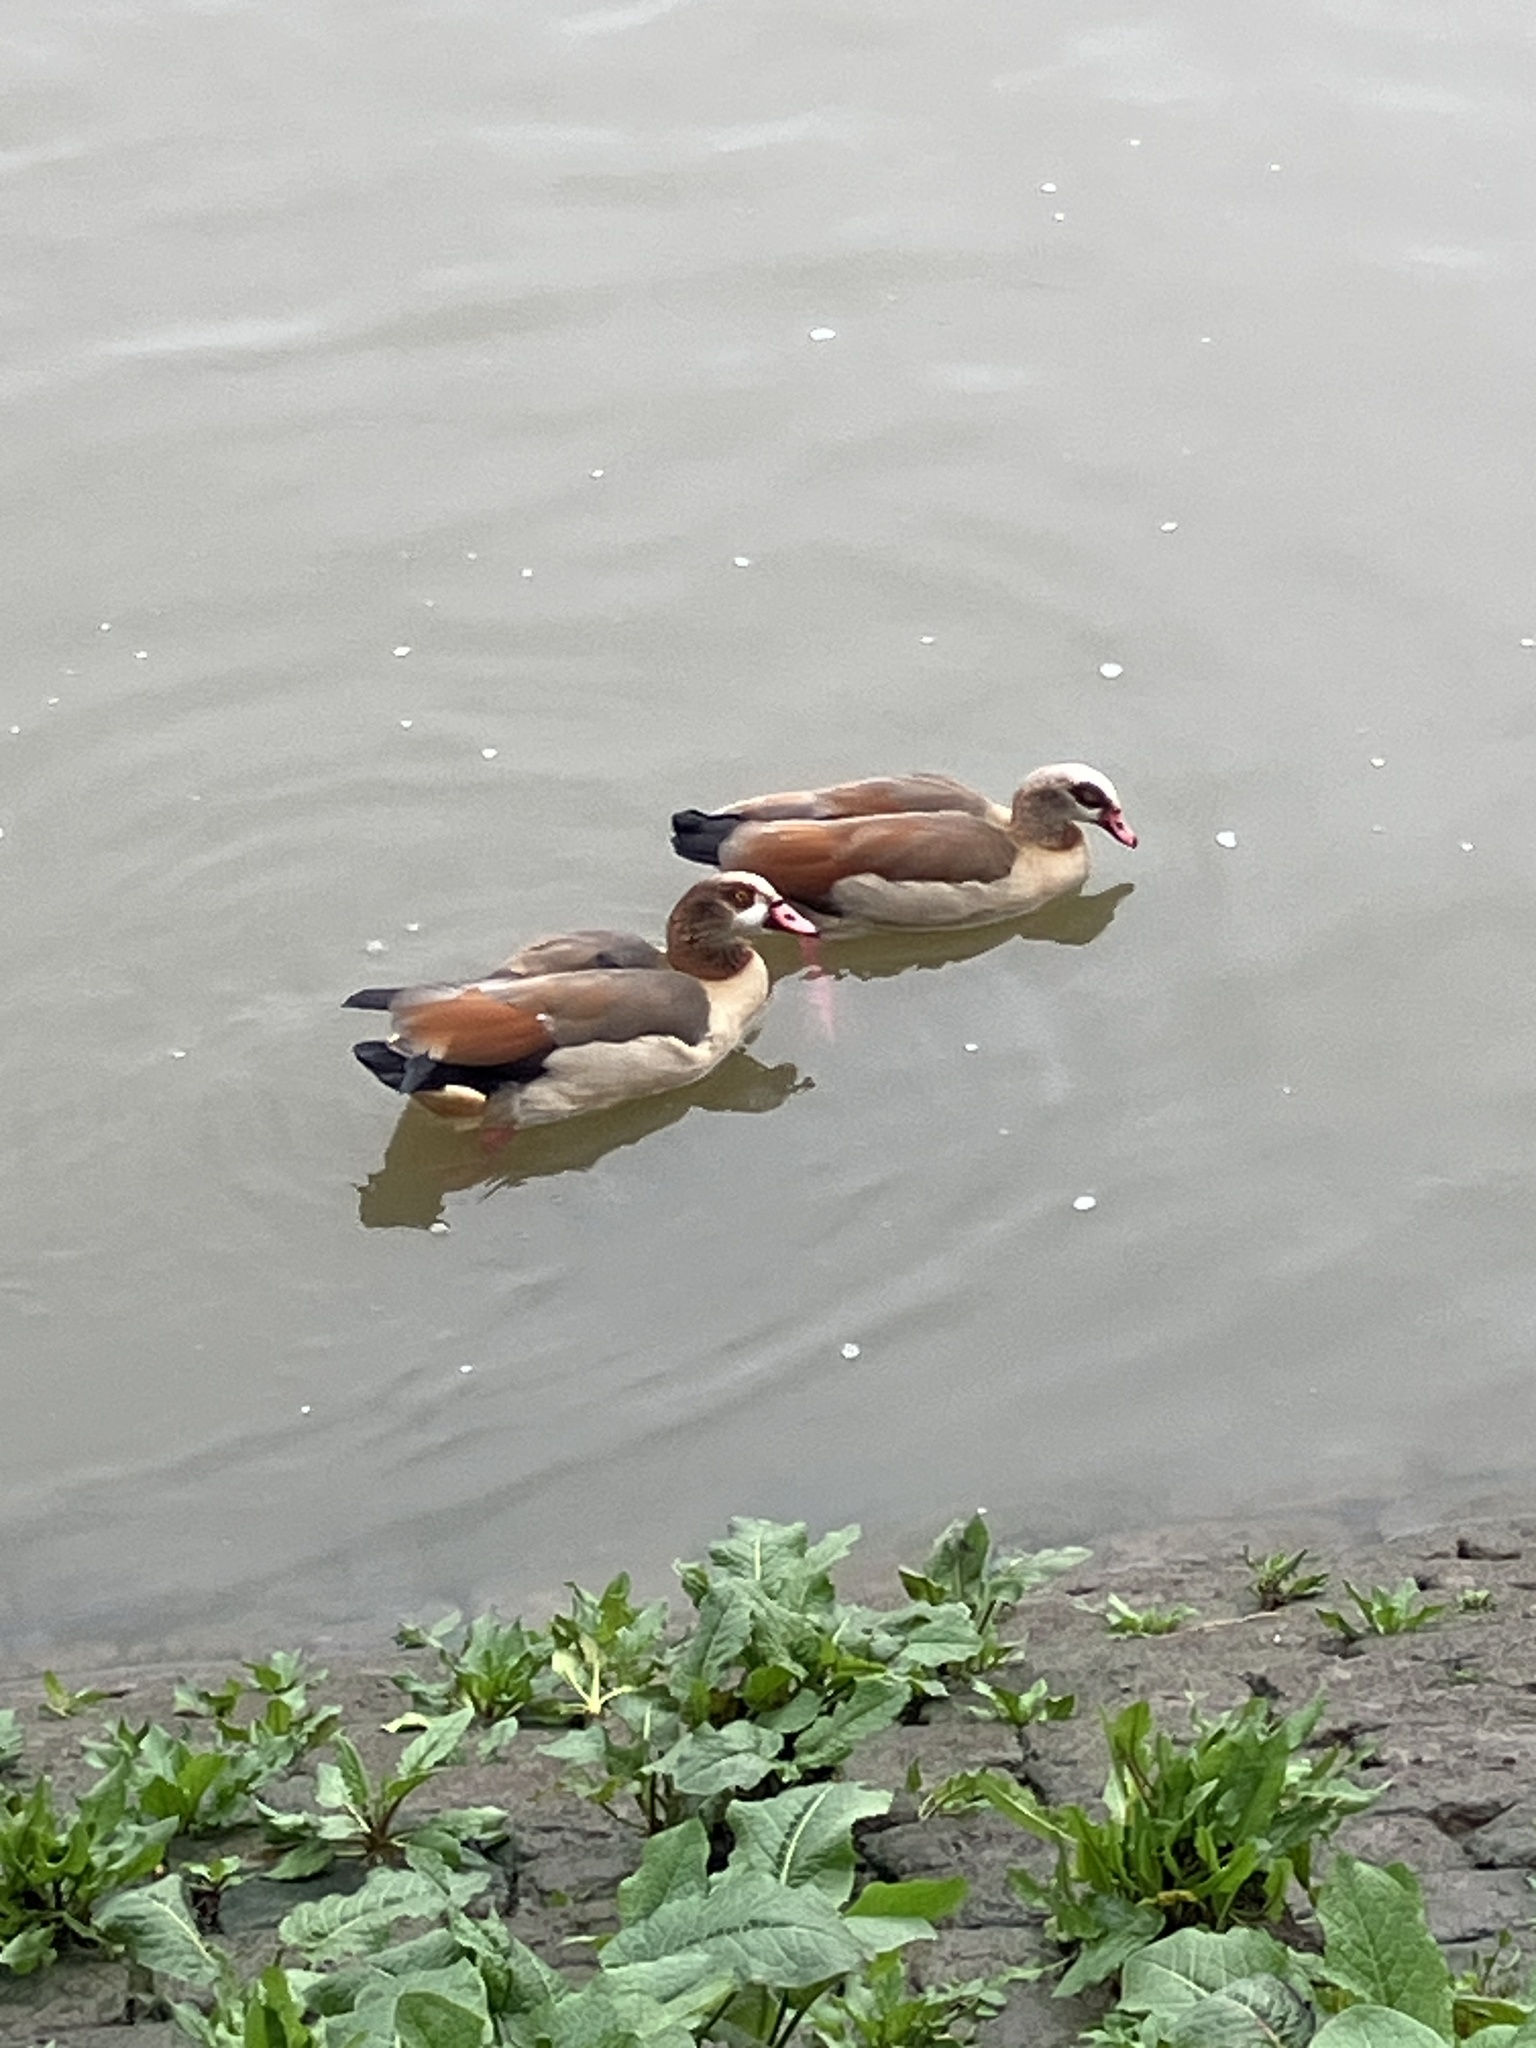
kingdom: Animalia
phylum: Chordata
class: Aves
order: Anseriformes
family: Anatidae
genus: Alopochen
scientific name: Alopochen aegyptiaca
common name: Egyptian goose
